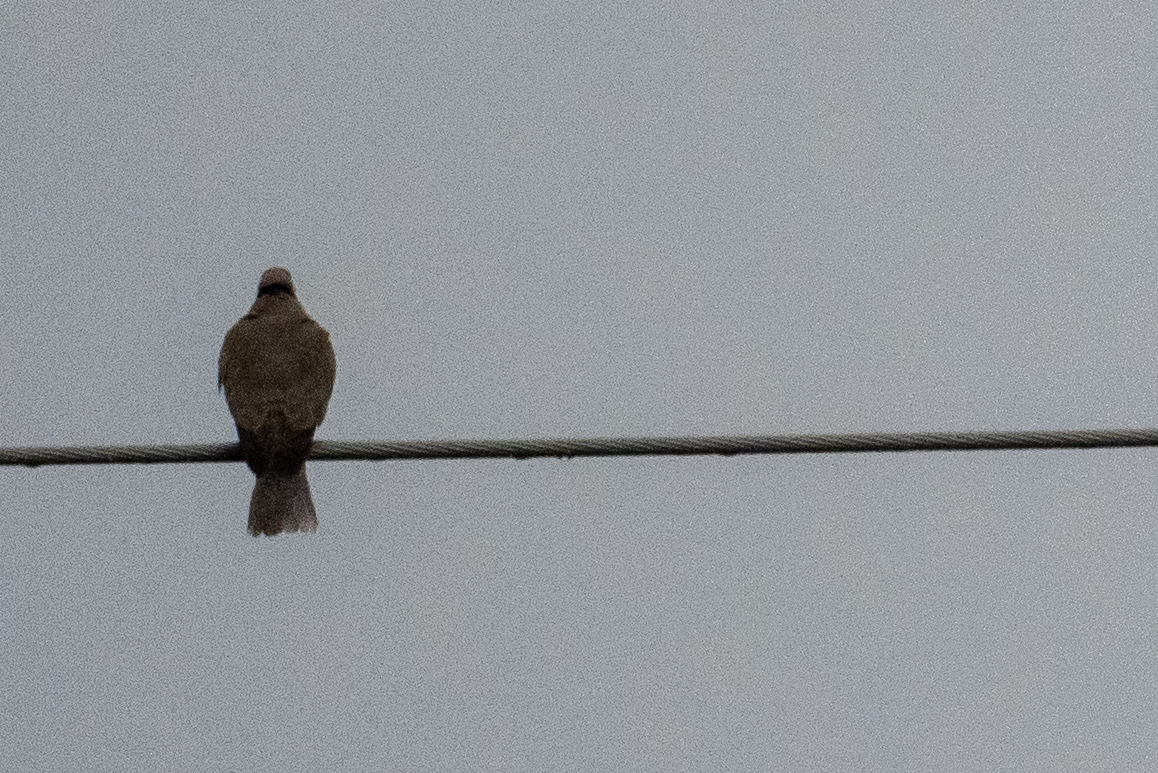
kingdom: Animalia
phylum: Chordata
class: Aves
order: Columbiformes
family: Columbidae
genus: Streptopelia
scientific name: Streptopelia decaocto
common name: Eurasian collared dove
